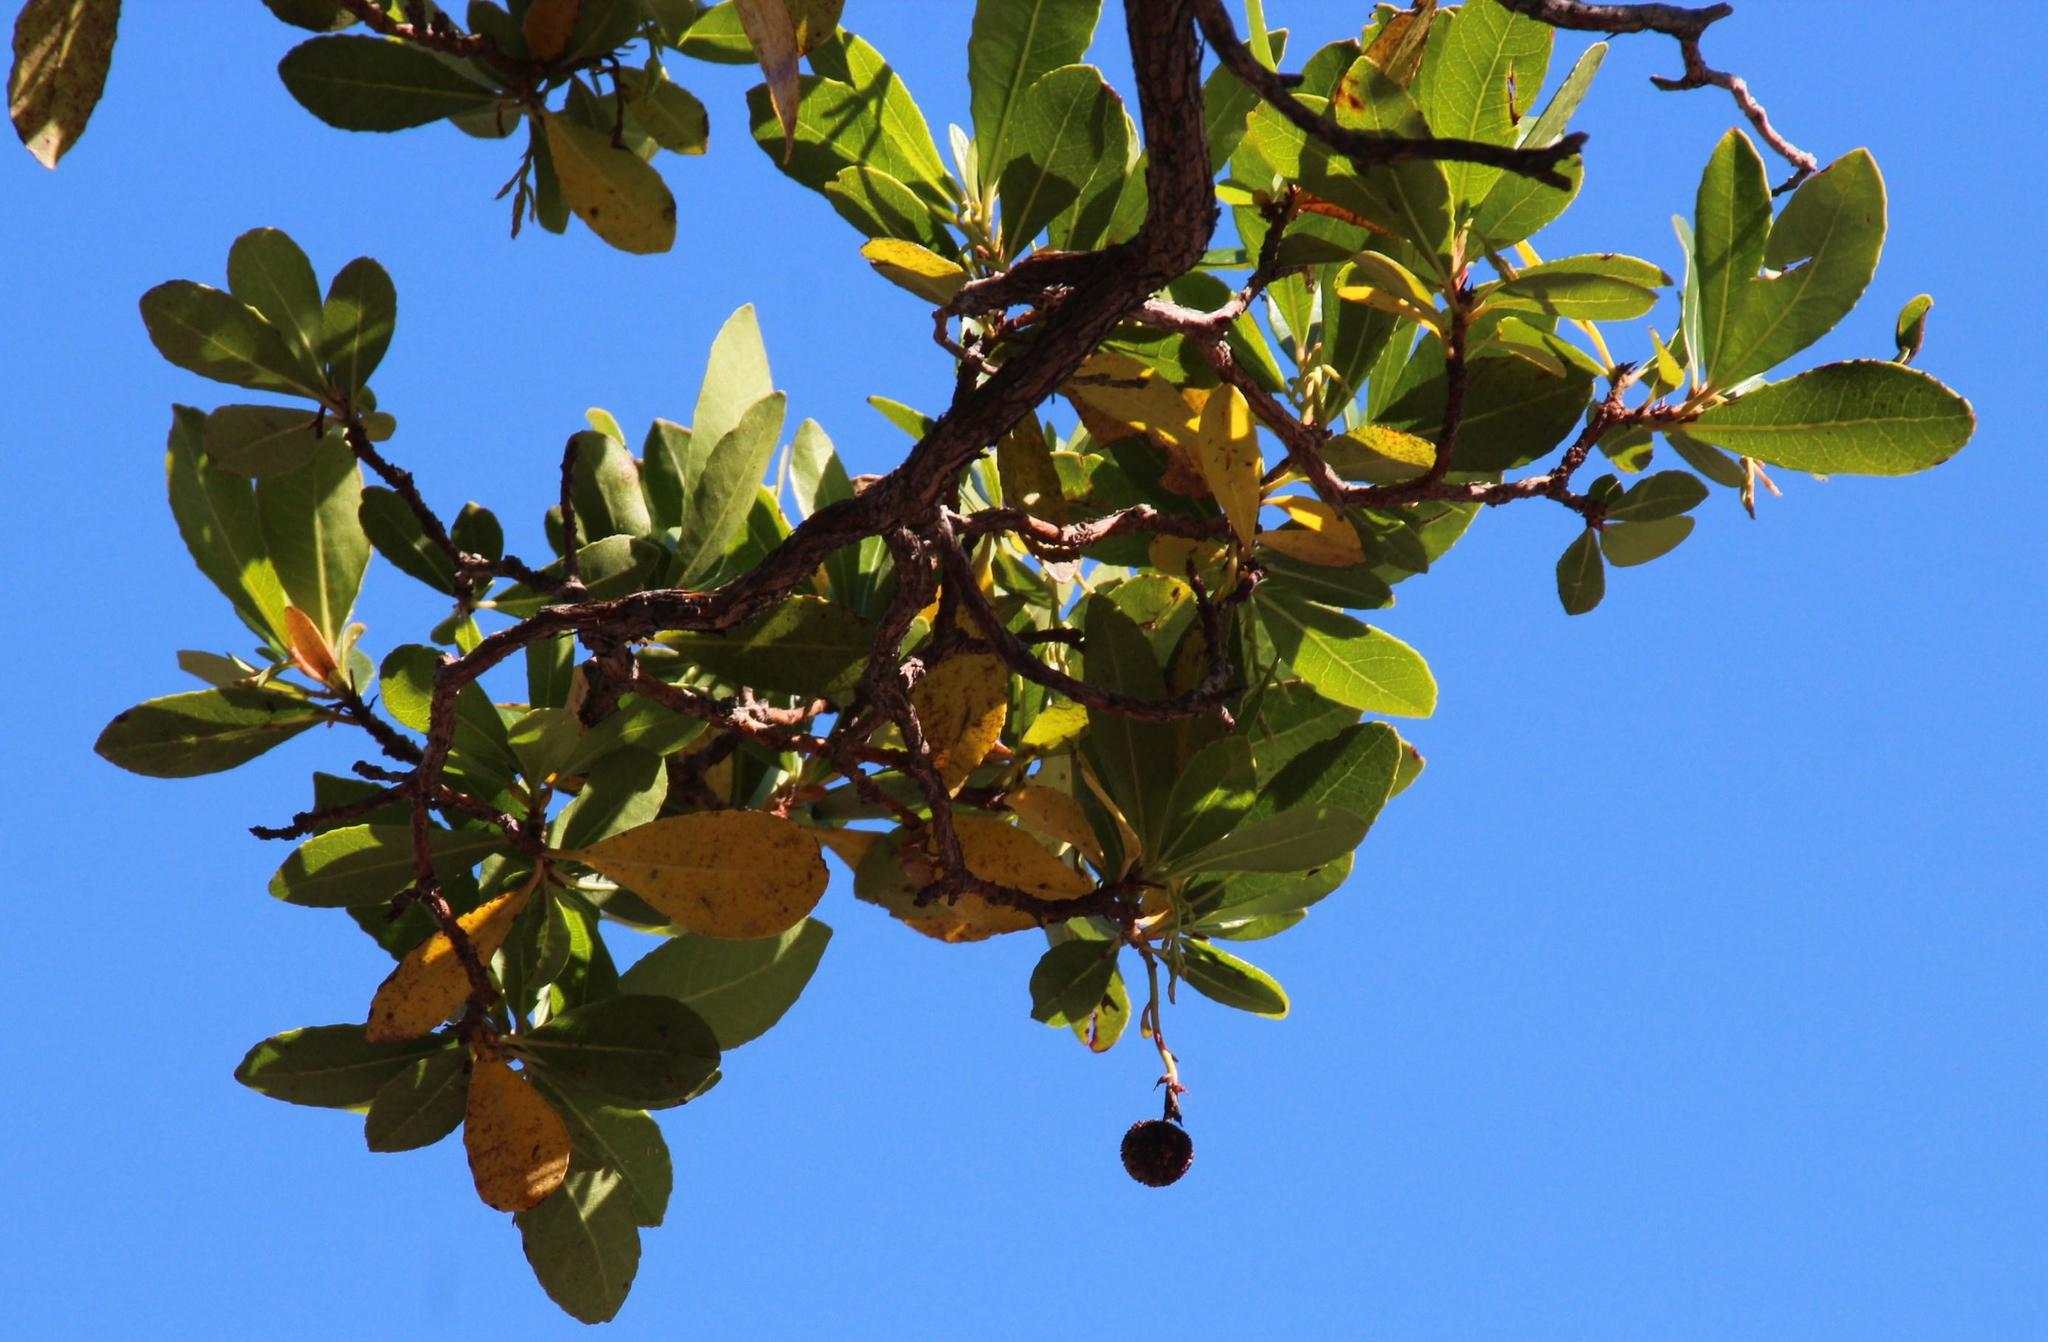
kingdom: Plantae
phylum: Tracheophyta
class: Magnoliopsida
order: Ericales
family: Ericaceae
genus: Arbutus
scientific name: Arbutus unedo
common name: Strawberry-tree
